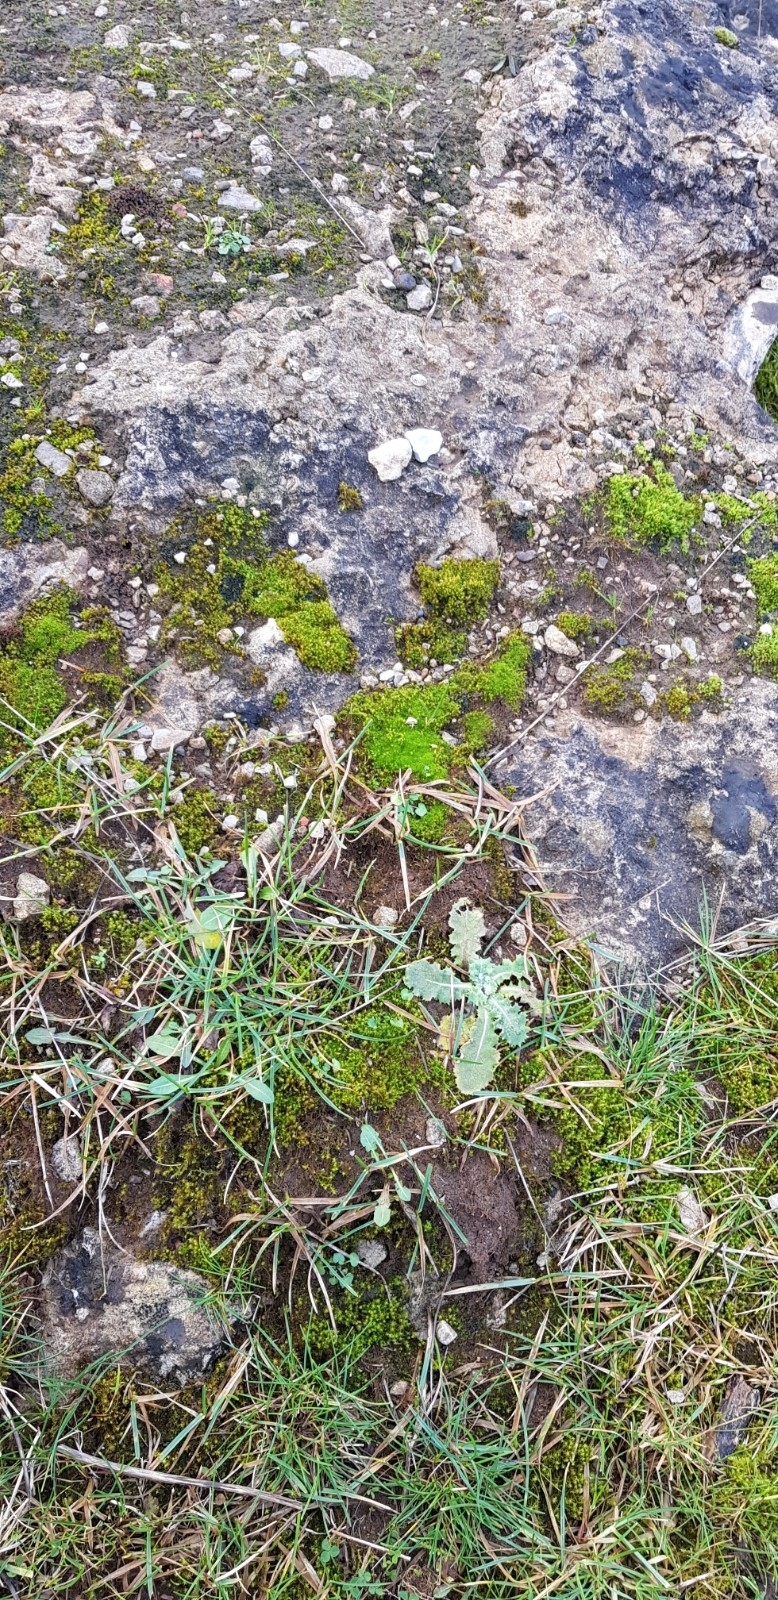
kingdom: Plantae
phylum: Bryophyta
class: Bryopsida
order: Pottiales
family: Pottiaceae
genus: Geheebia
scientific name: Geheebia fallax
